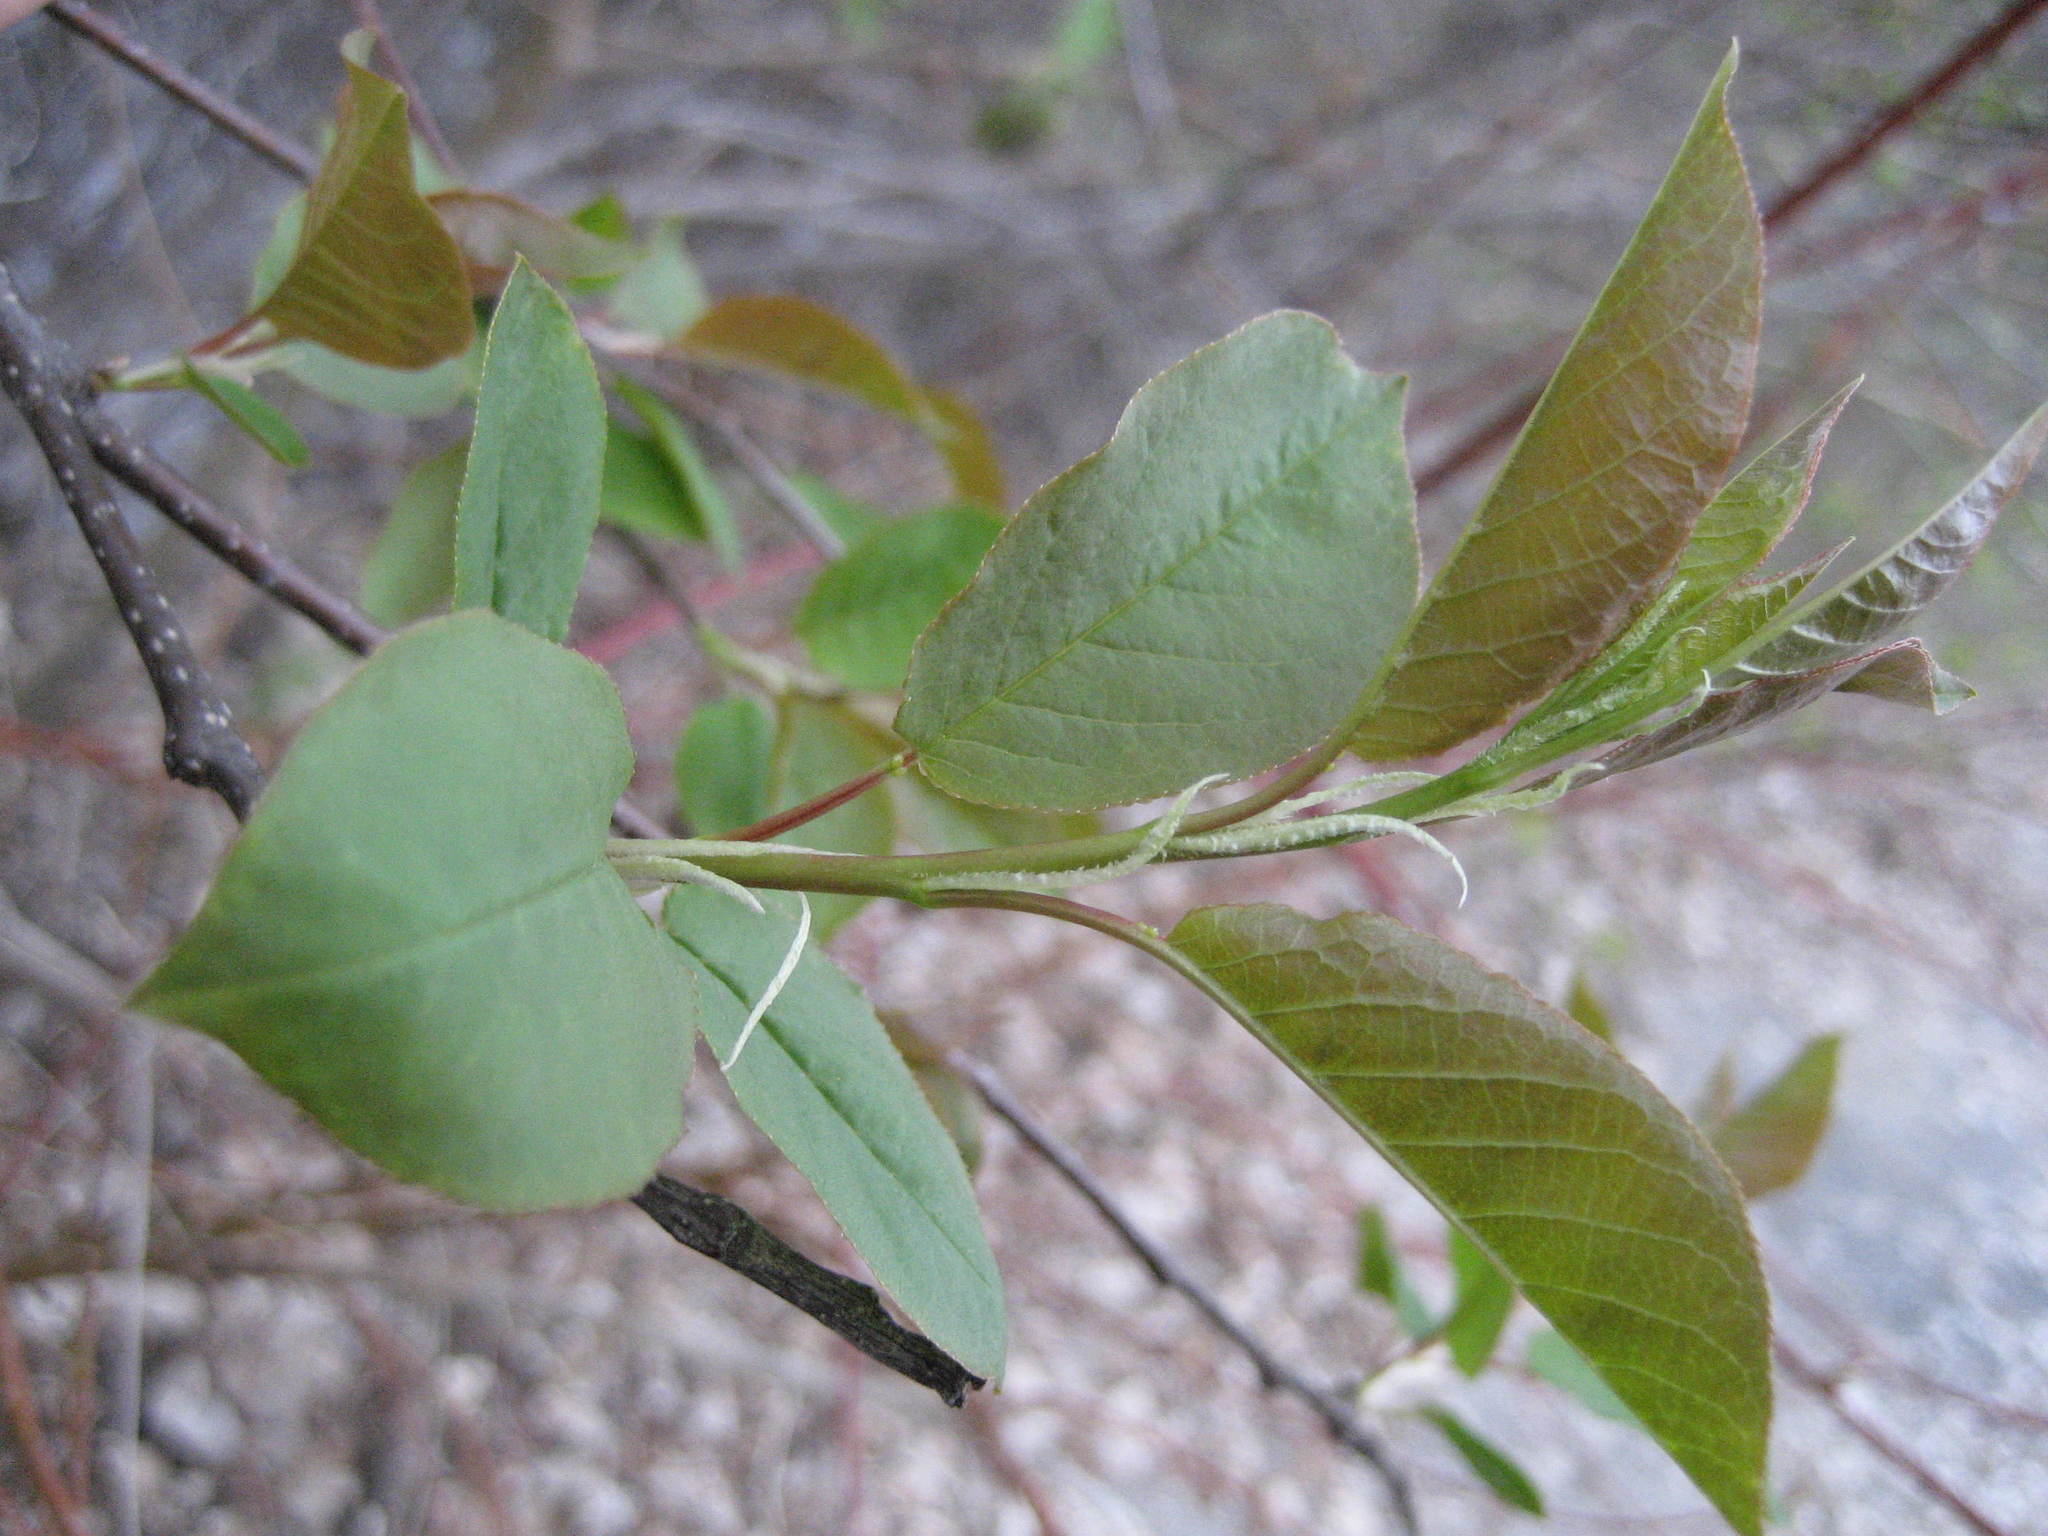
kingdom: Plantae
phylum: Tracheophyta
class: Magnoliopsida
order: Rosales
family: Rosaceae
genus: Prunus
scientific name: Prunus virginiana
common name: Chokecherry
